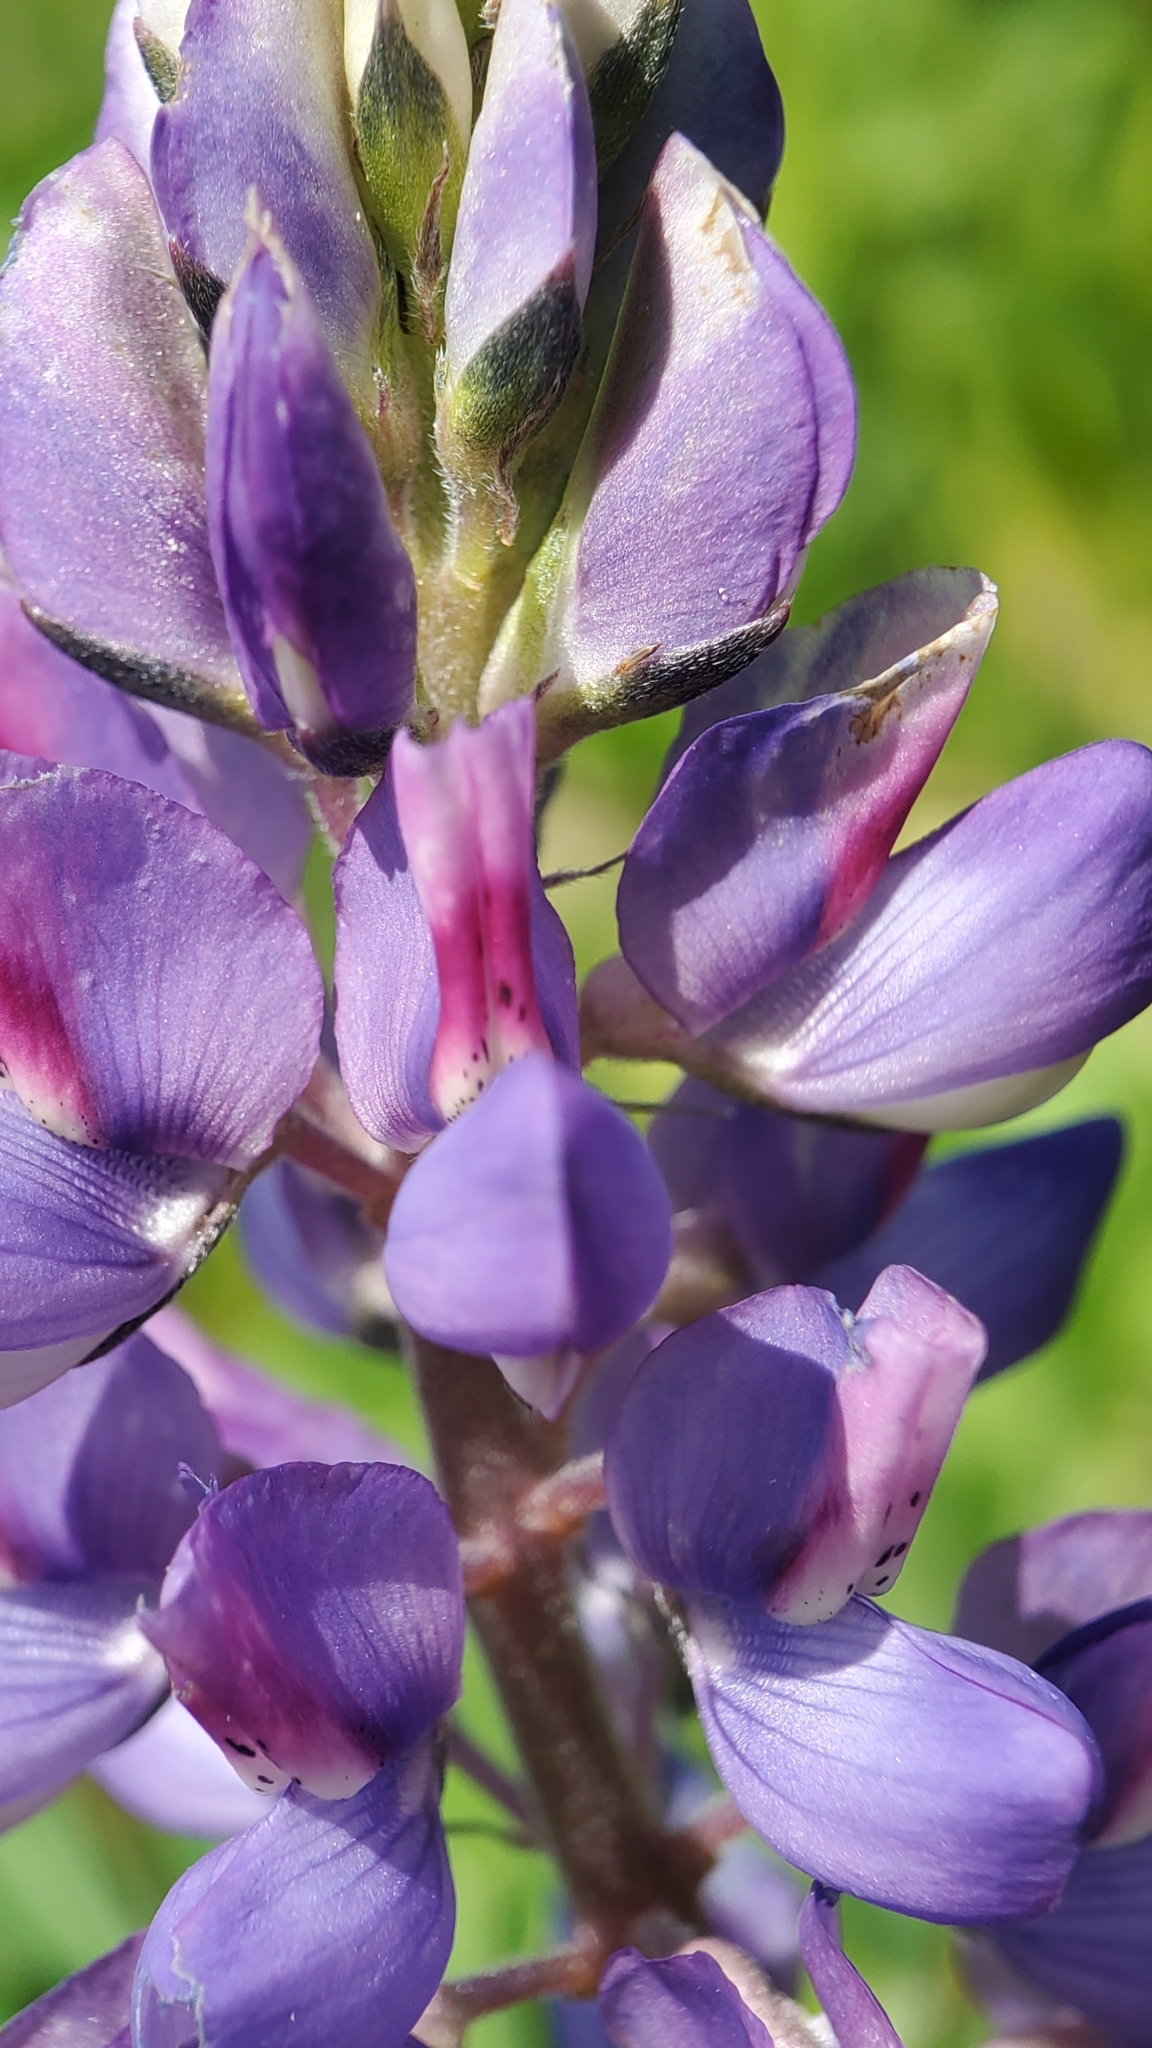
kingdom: Plantae
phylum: Tracheophyta
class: Magnoliopsida
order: Fabales
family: Fabaceae
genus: Lupinus
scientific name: Lupinus succulentus
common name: Arroyo lupine
